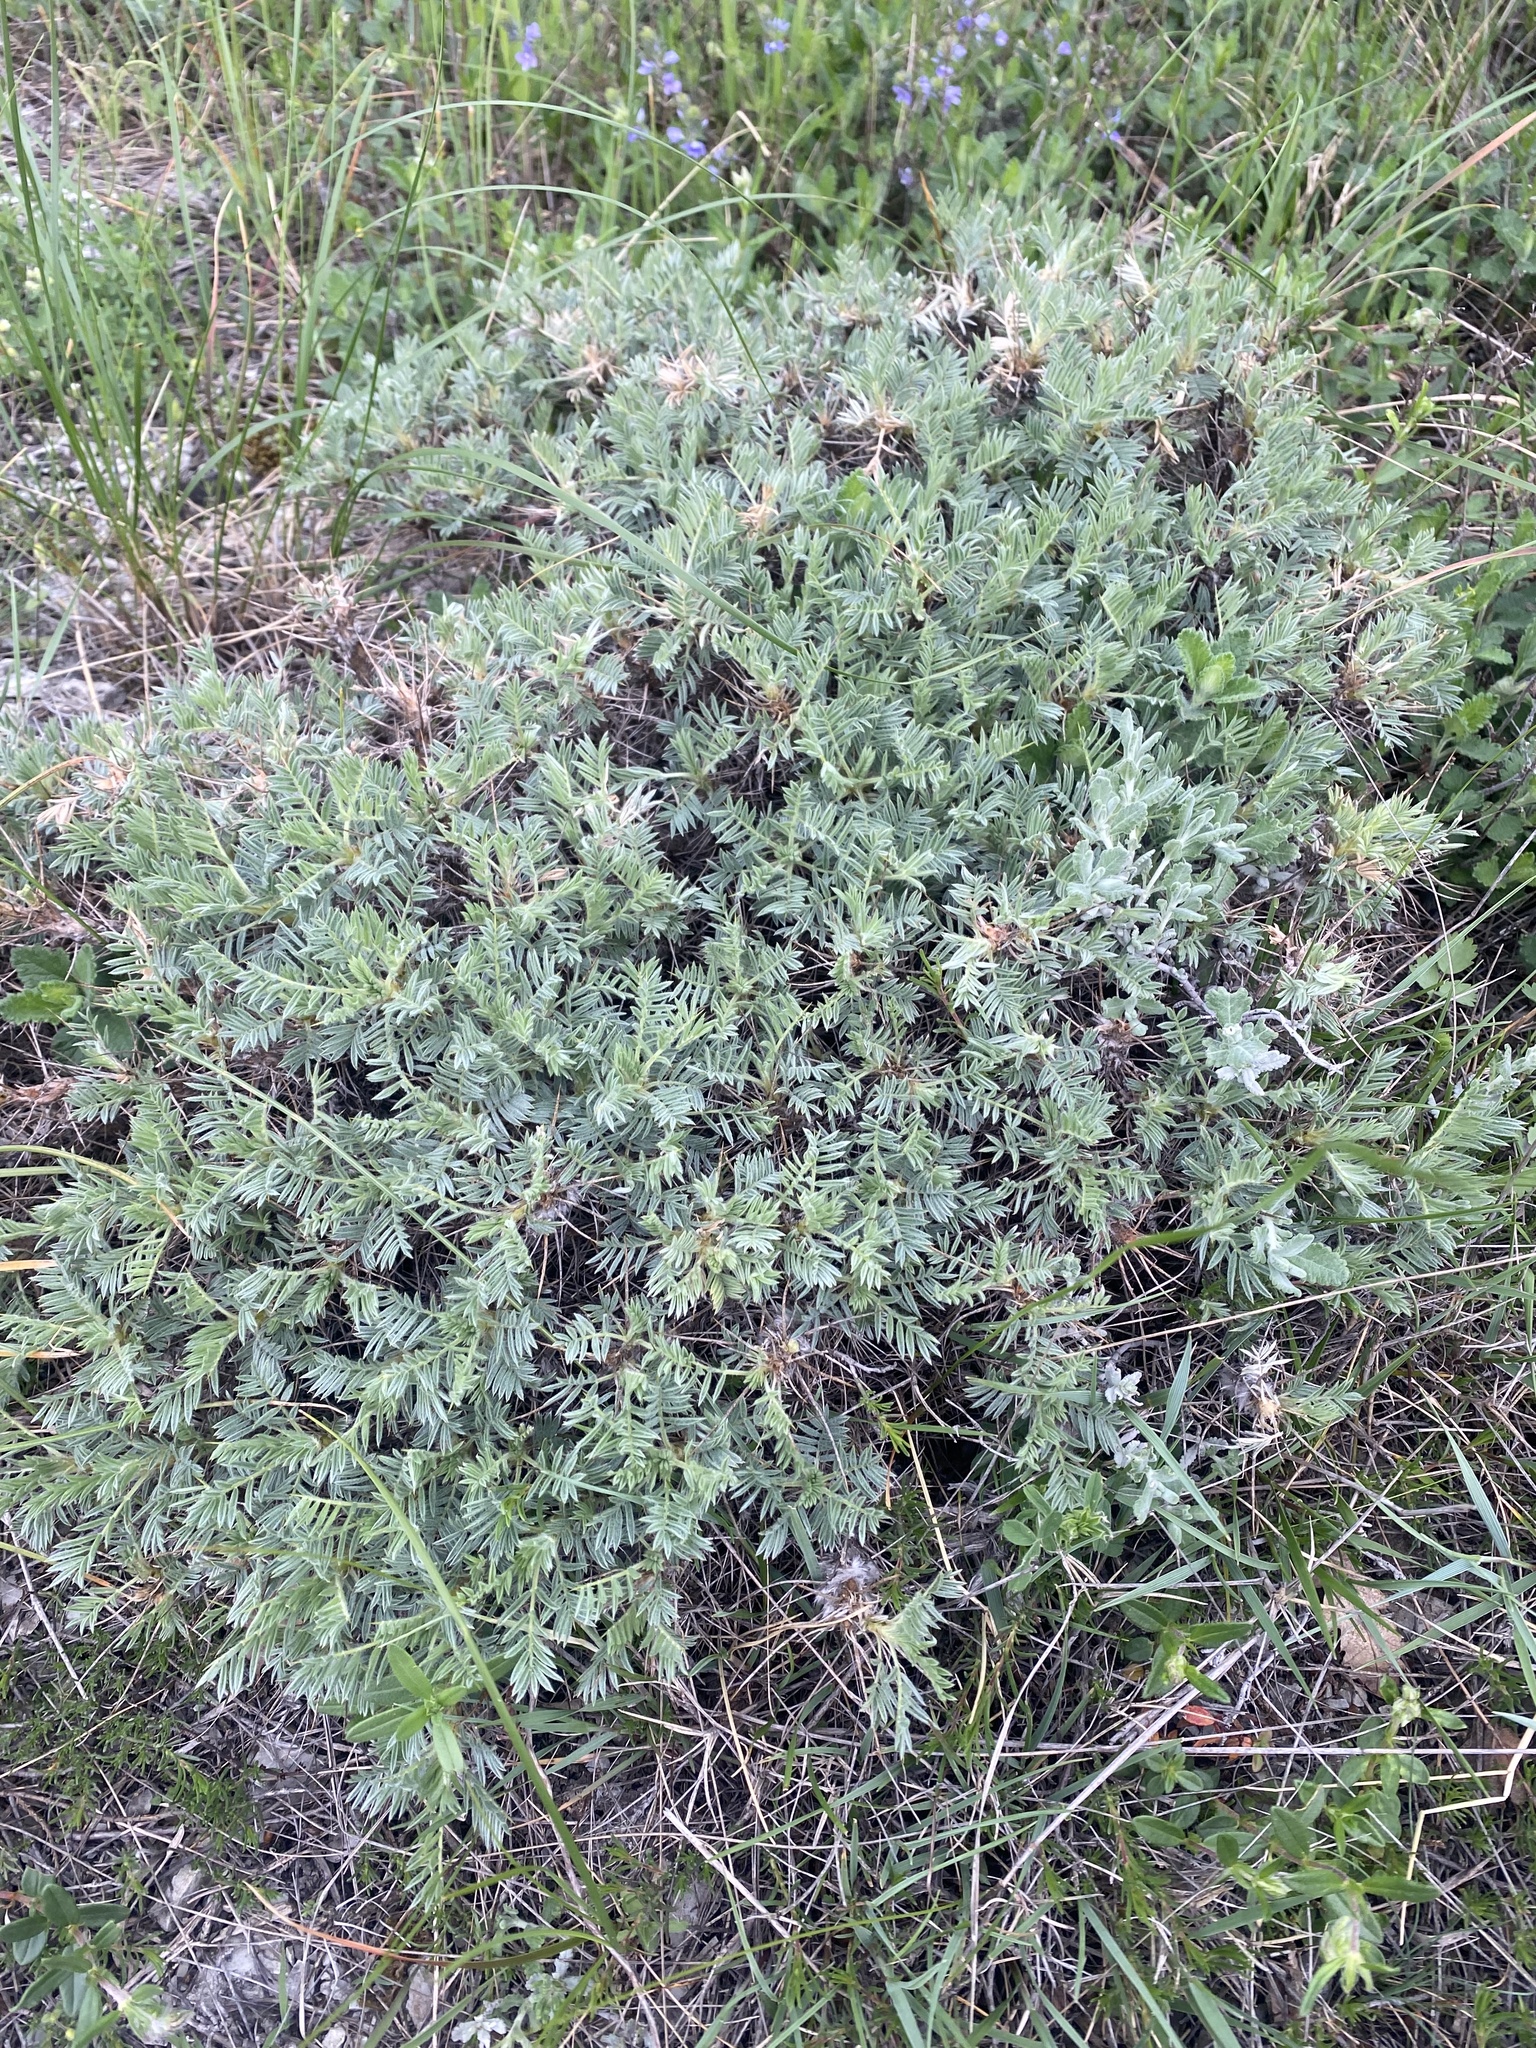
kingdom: Plantae
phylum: Tracheophyta
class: Magnoliopsida
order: Fabales
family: Fabaceae
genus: Astragalus
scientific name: Astragalus arnacanthoides
